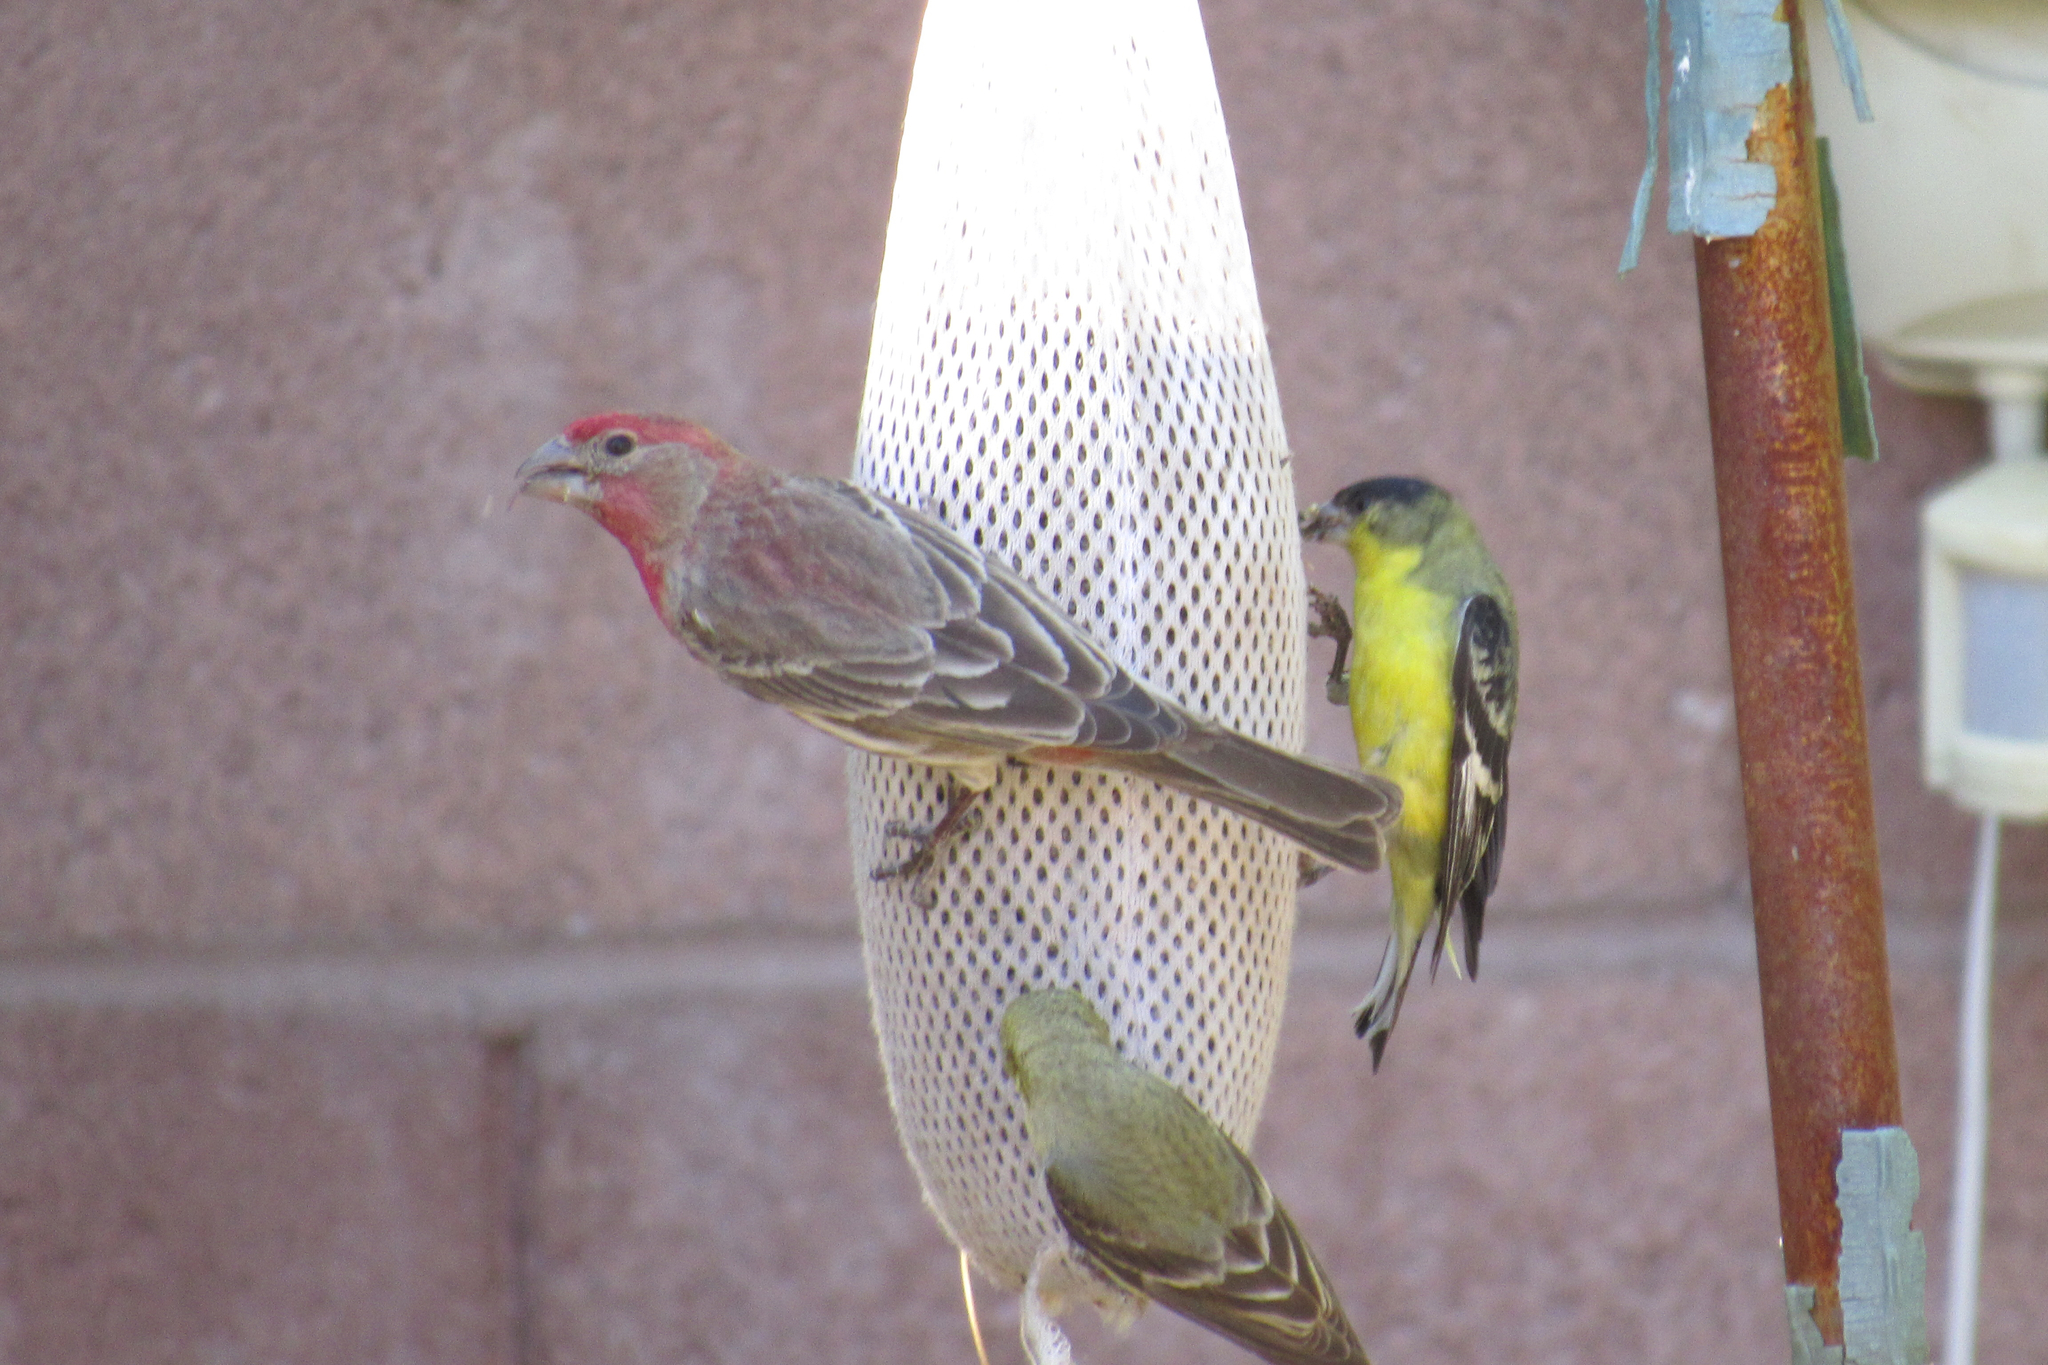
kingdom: Animalia
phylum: Chordata
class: Aves
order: Passeriformes
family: Fringillidae
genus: Haemorhous
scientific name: Haemorhous mexicanus
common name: House finch
